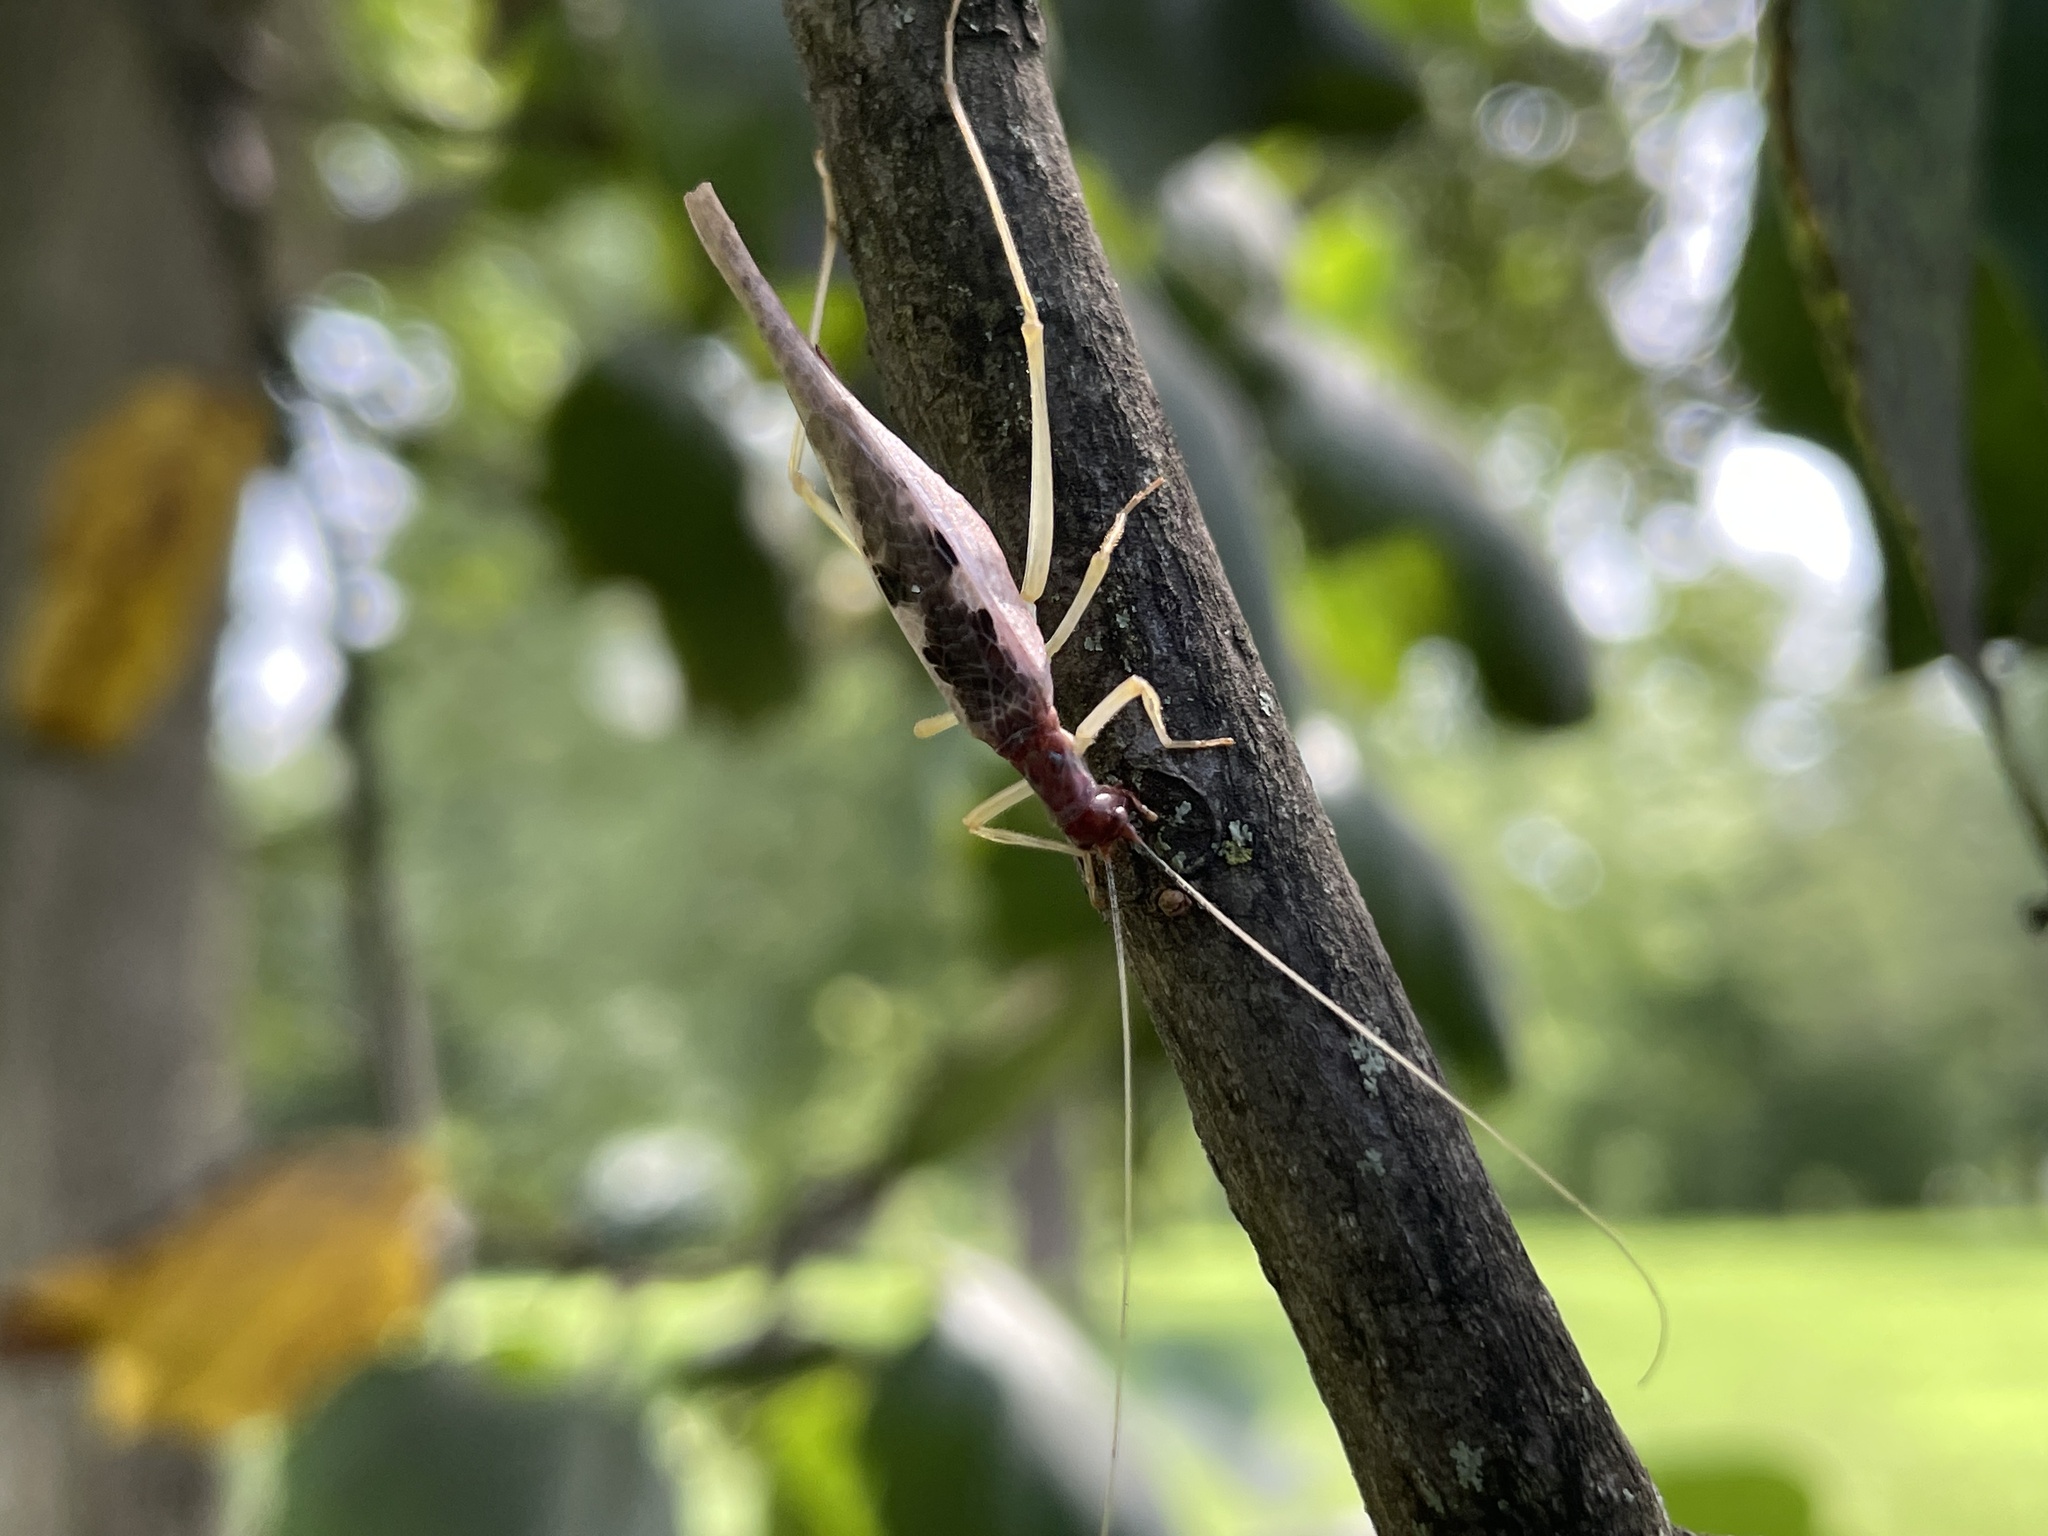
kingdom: Animalia
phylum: Arthropoda
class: Insecta
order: Orthoptera
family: Gryllidae
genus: Neoxabea
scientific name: Neoxabea bipunctata
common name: Two-spotted tree cricket
